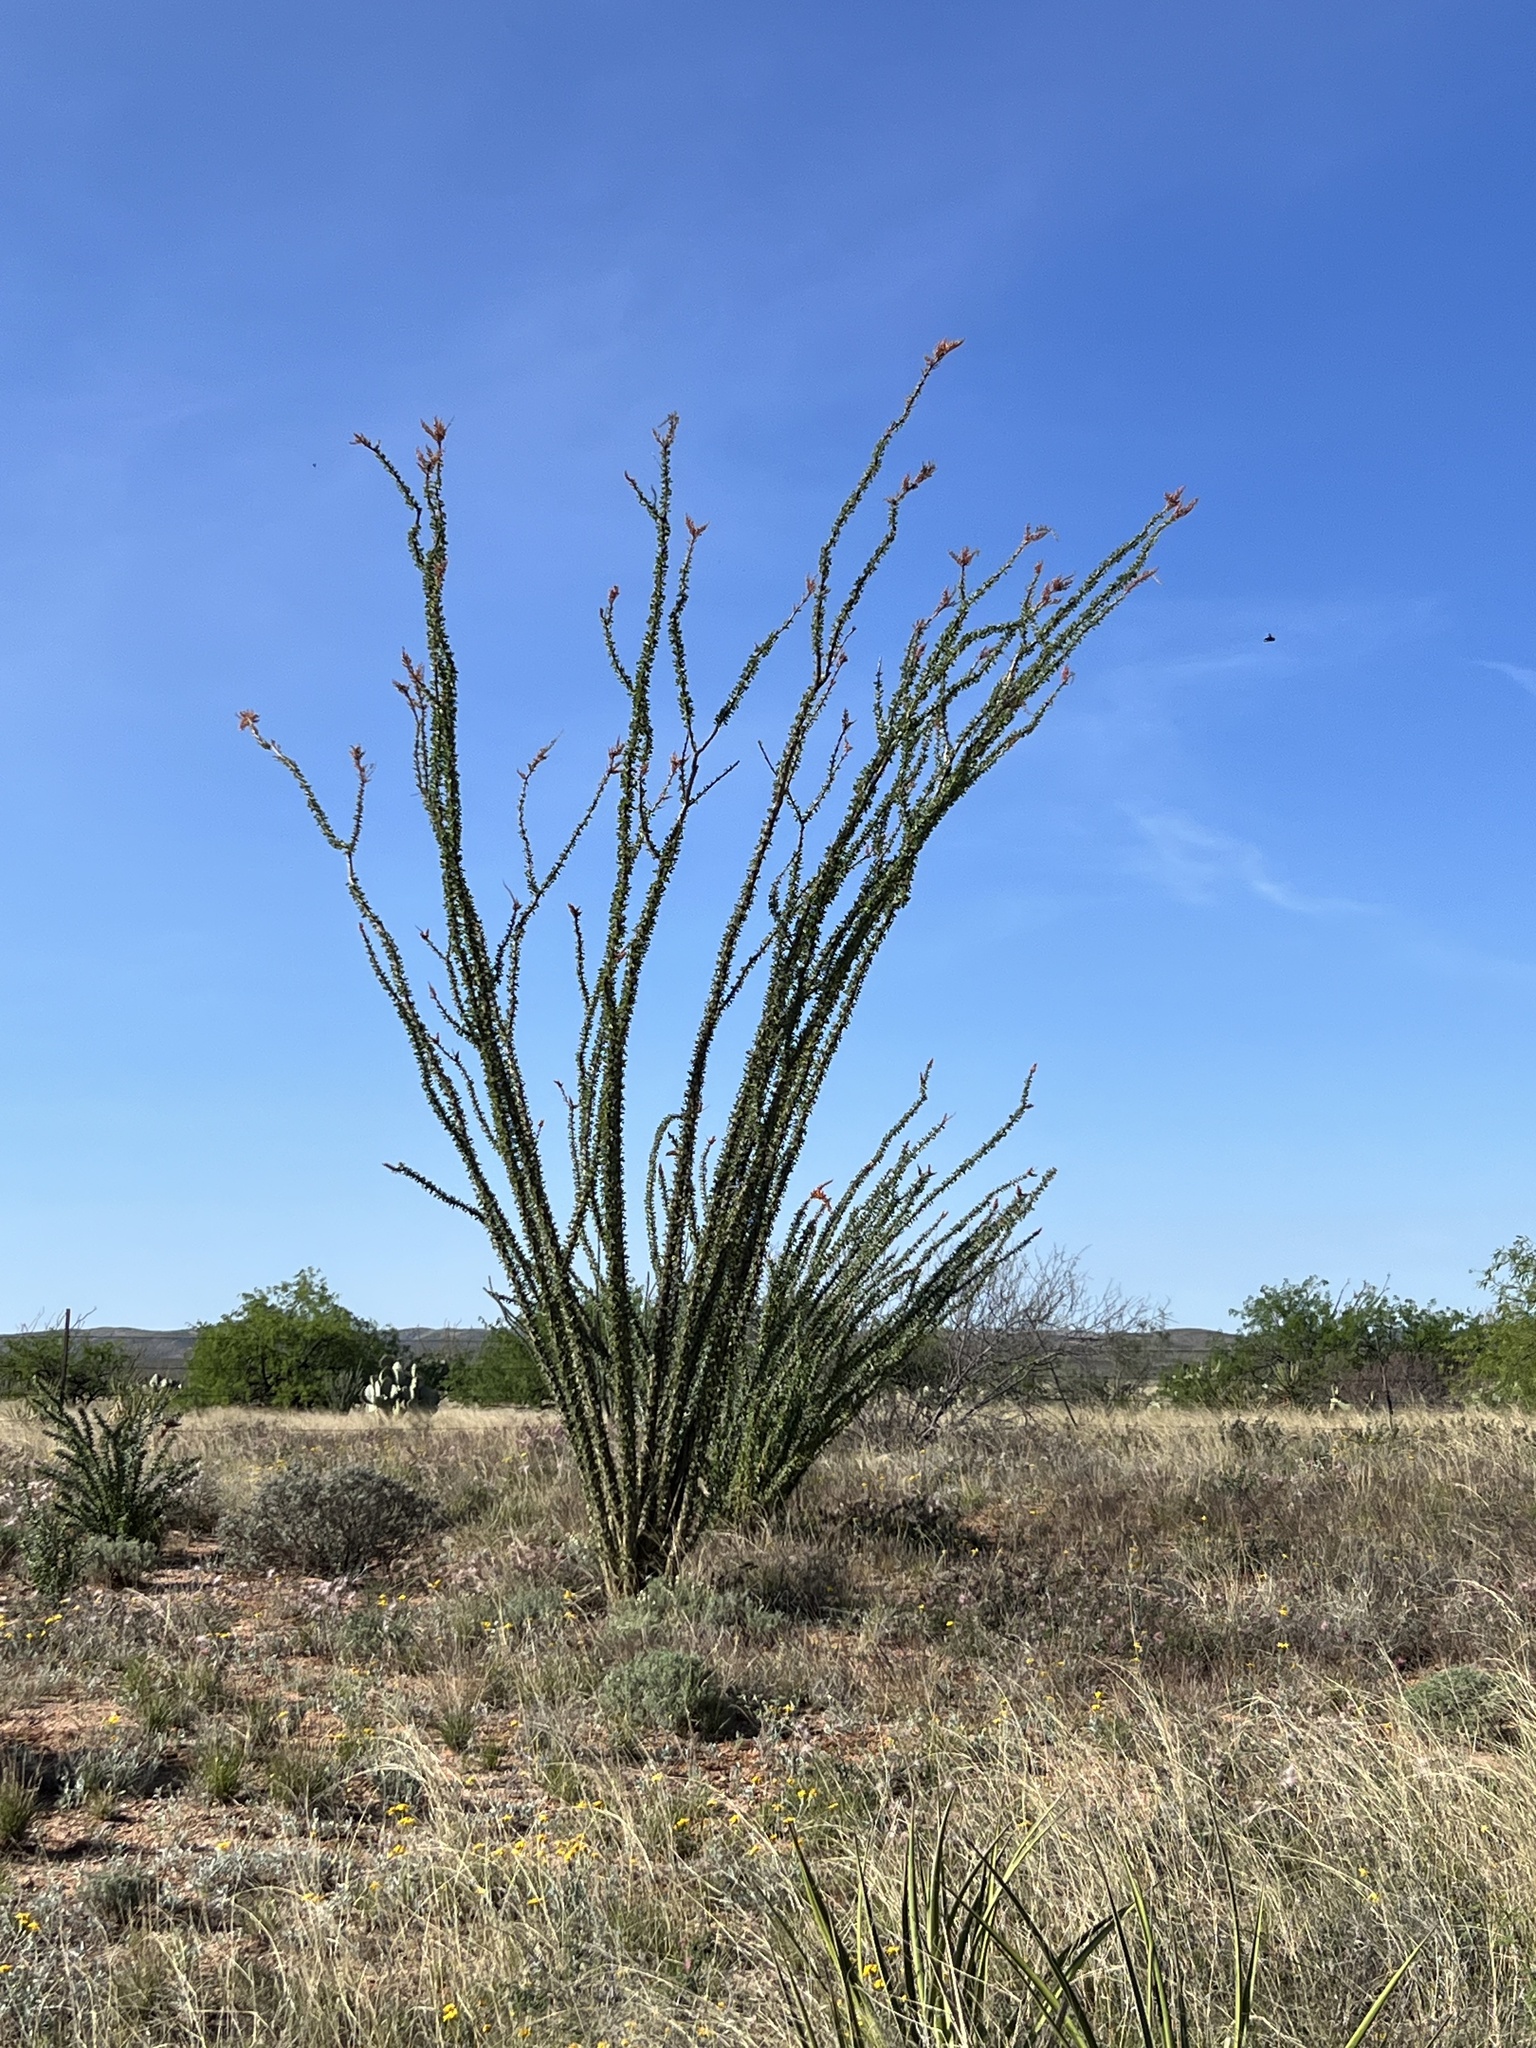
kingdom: Plantae
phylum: Tracheophyta
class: Magnoliopsida
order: Ericales
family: Fouquieriaceae
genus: Fouquieria
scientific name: Fouquieria splendens
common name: Vine-cactus
